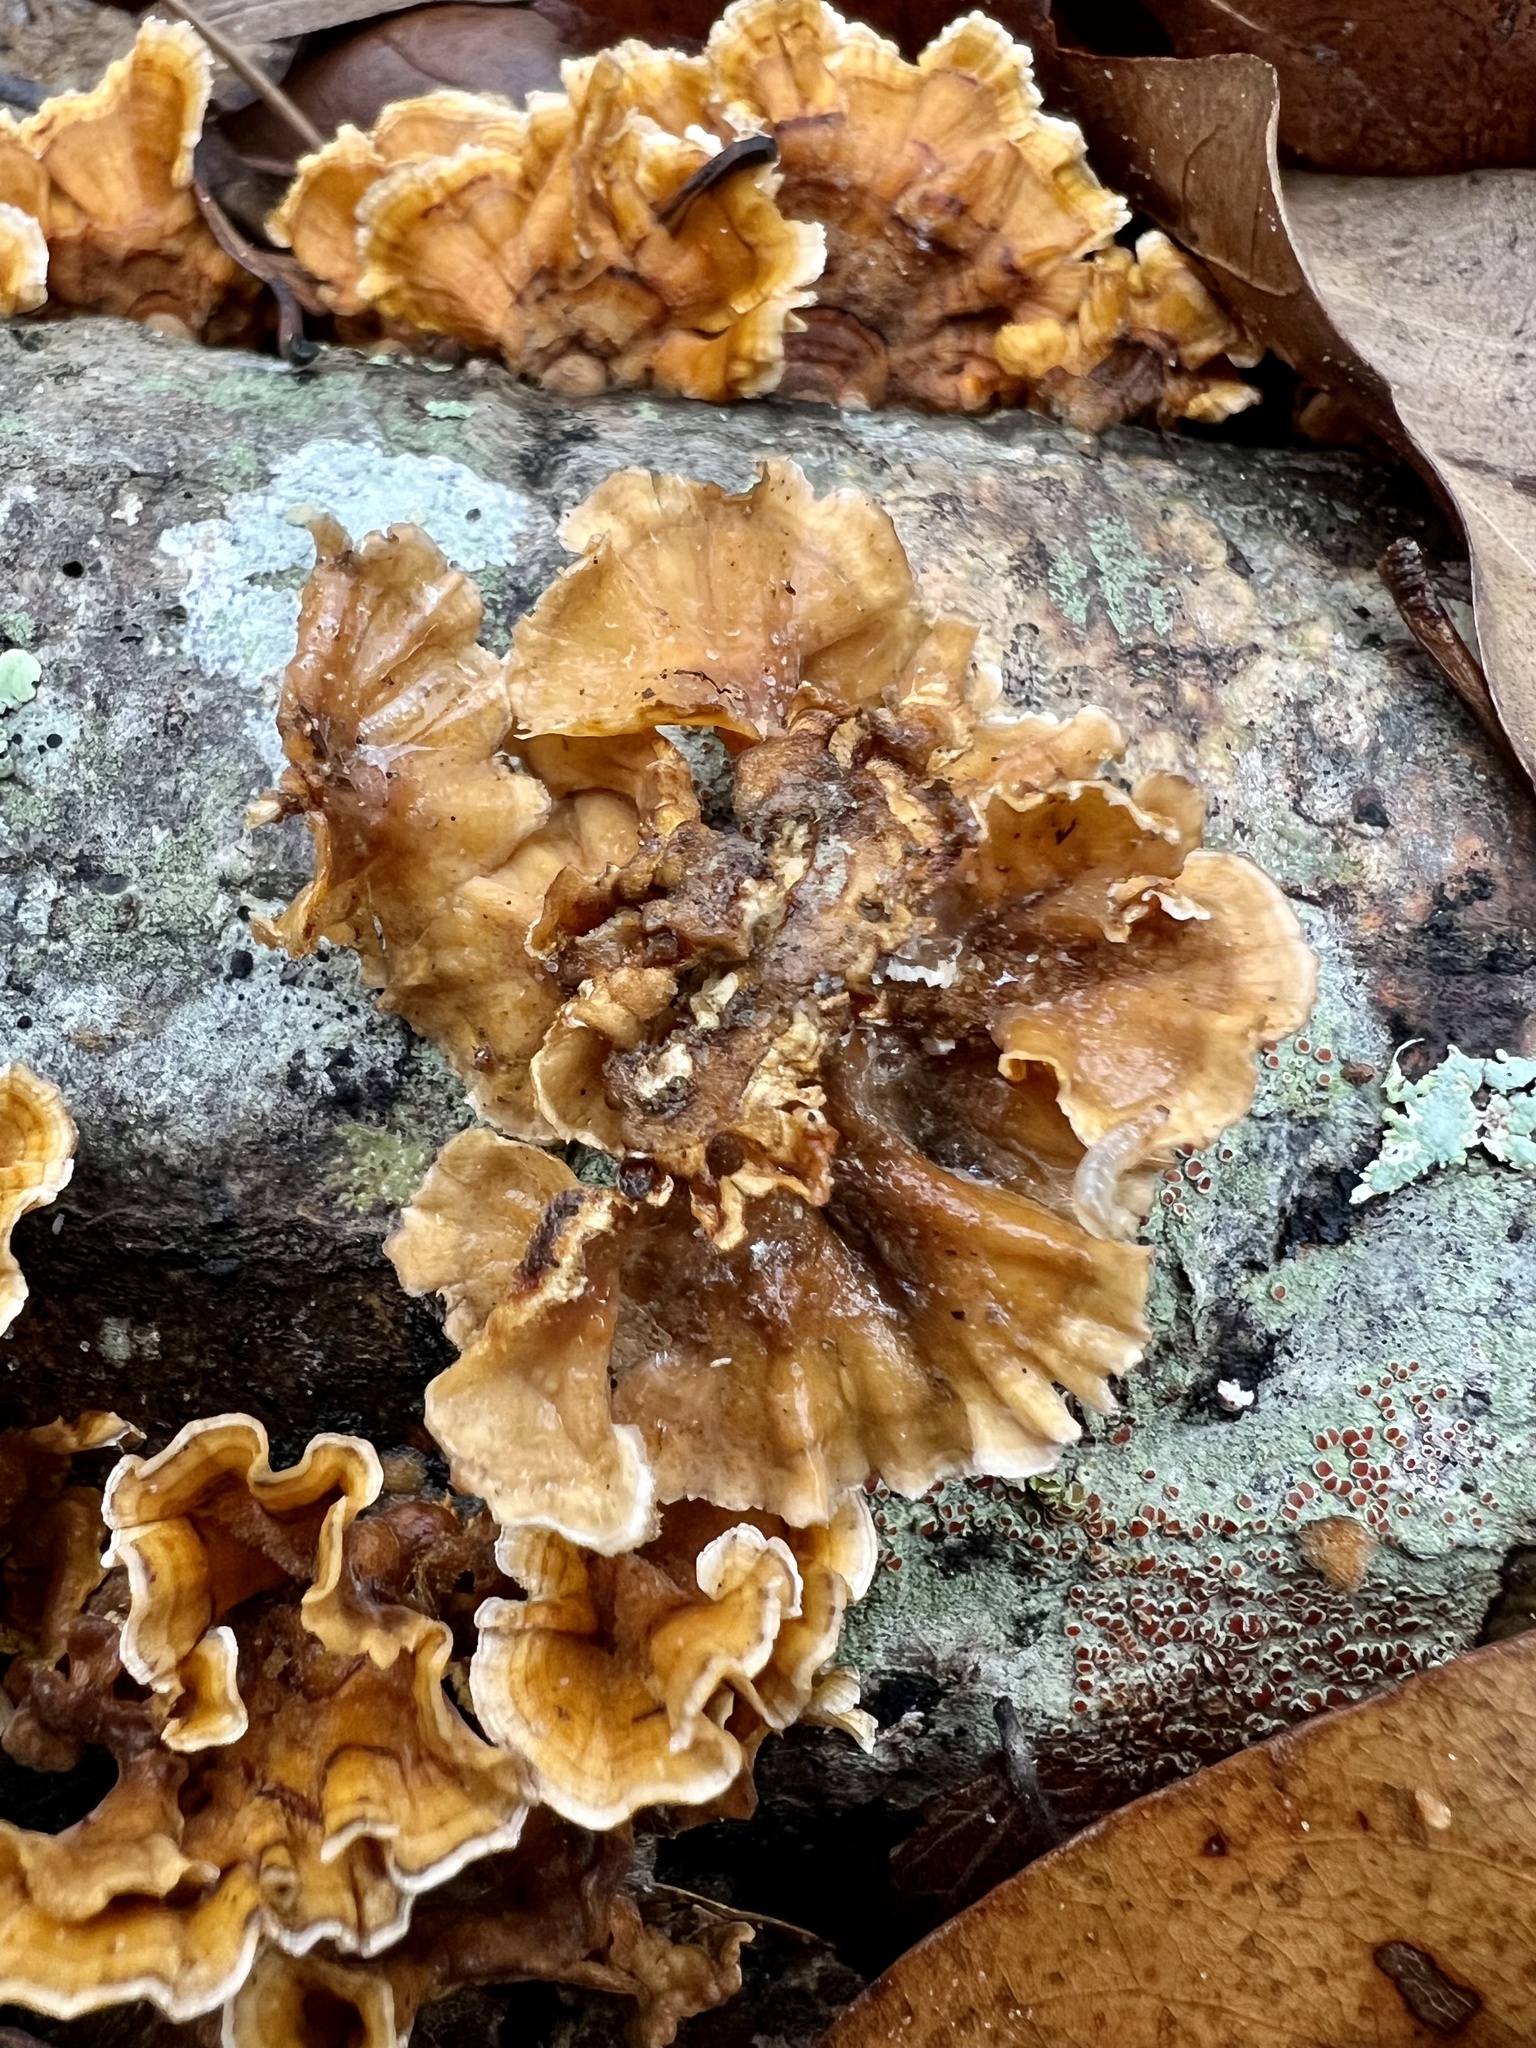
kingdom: Fungi
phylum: Basidiomycota
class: Agaricomycetes
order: Russulales
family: Stereaceae
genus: Stereum
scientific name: Stereum complicatum
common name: Crowded parchment
